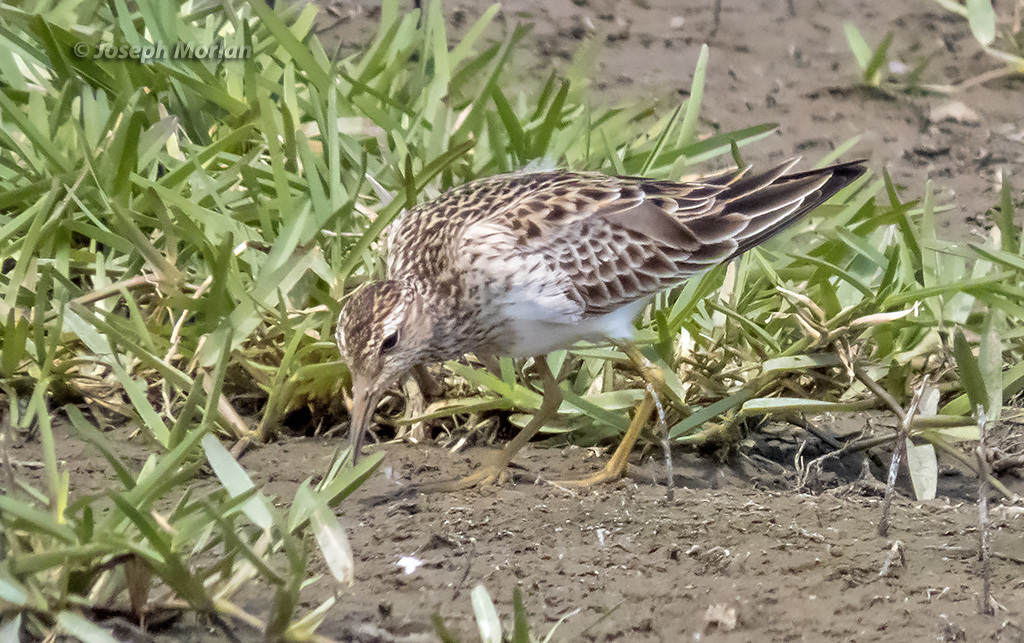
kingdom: Animalia
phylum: Chordata
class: Aves
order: Charadriiformes
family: Scolopacidae
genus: Calidris
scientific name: Calidris melanotos
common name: Pectoral sandpiper
